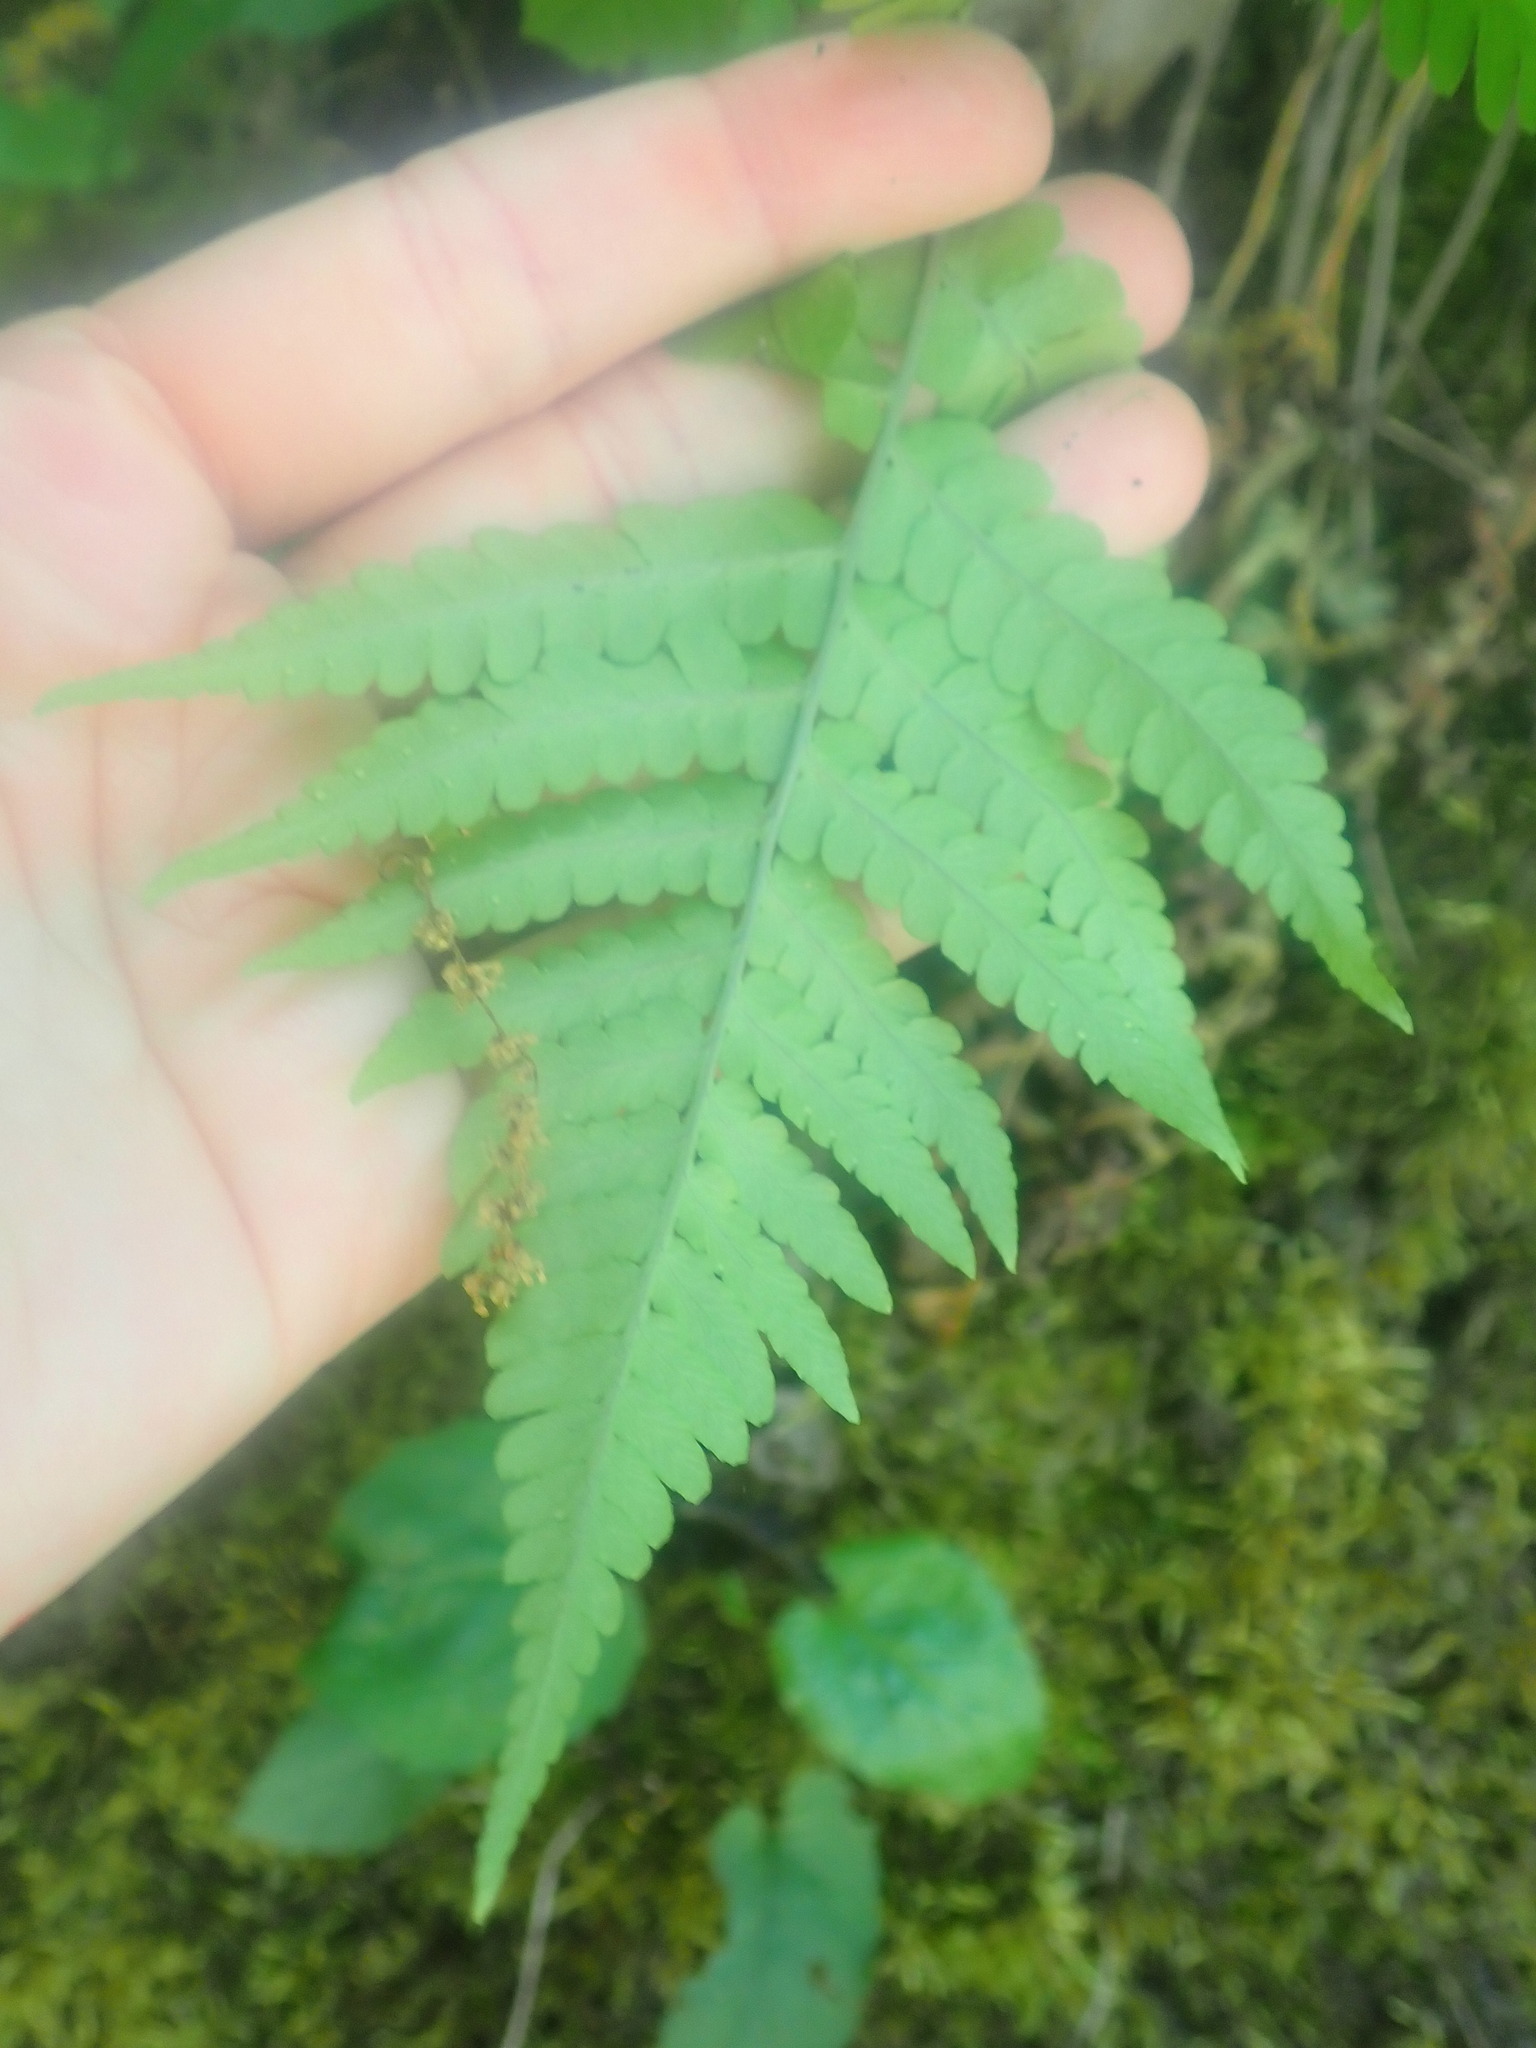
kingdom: Plantae
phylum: Tracheophyta
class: Polypodiopsida
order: Polypodiales
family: Dryopteridaceae
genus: Dryopteris
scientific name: Dryopteris marginalis
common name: Marginal wood fern
